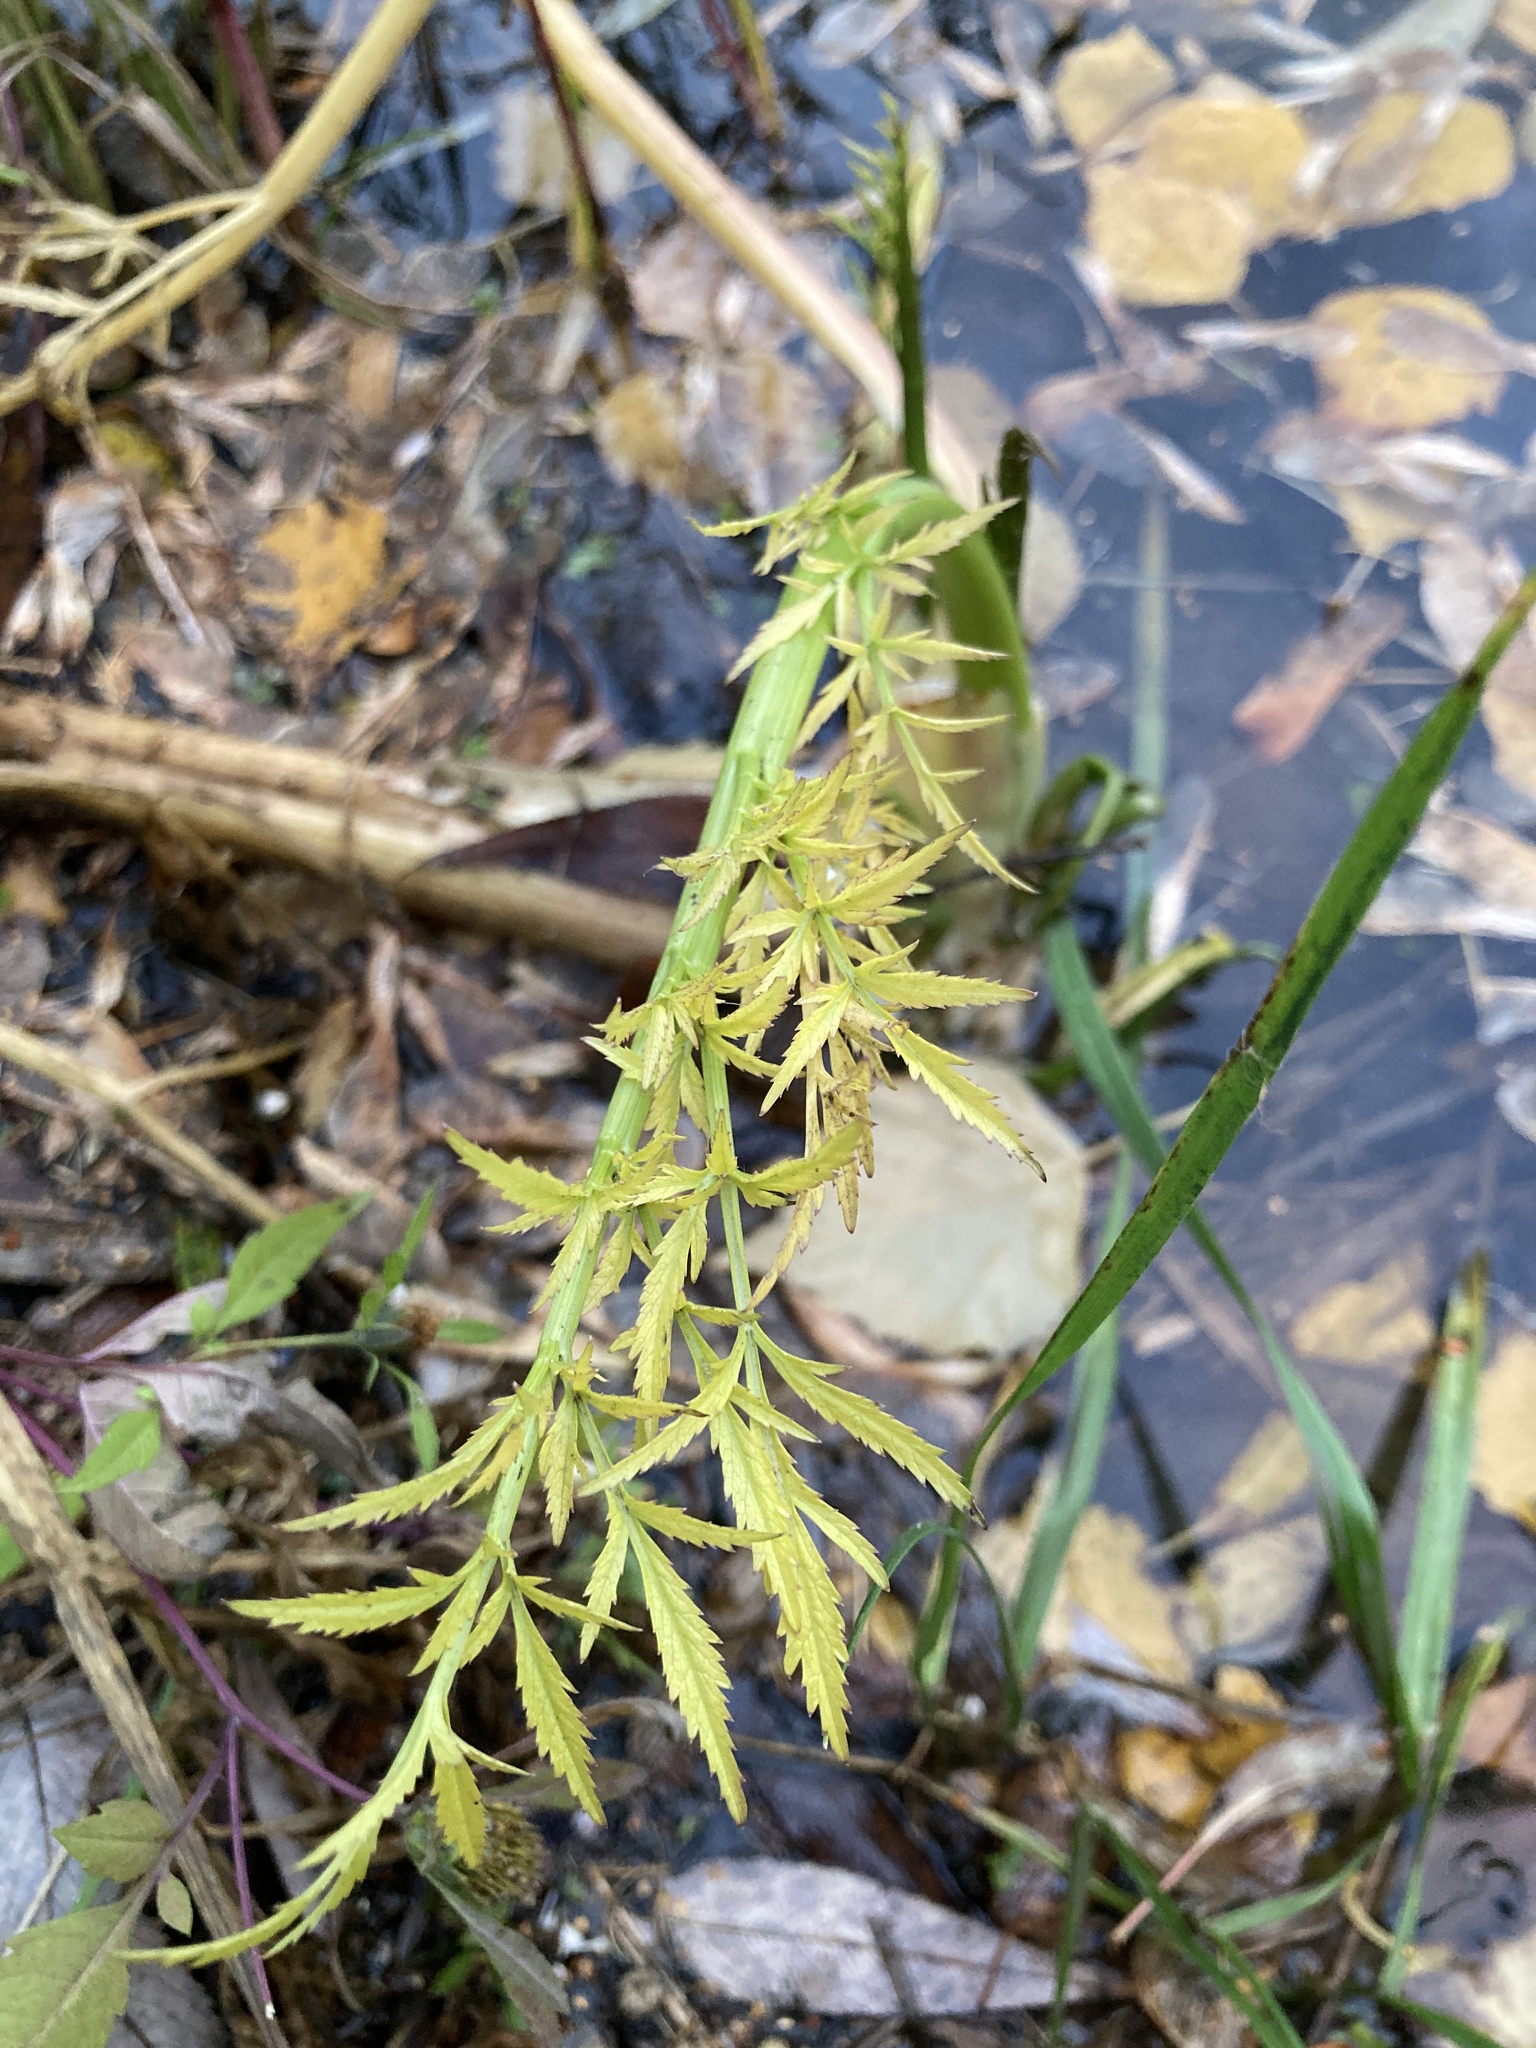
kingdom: Plantae
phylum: Tracheophyta
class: Magnoliopsida
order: Apiales
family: Apiaceae
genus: Cicuta
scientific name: Cicuta virosa
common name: Cowbane
